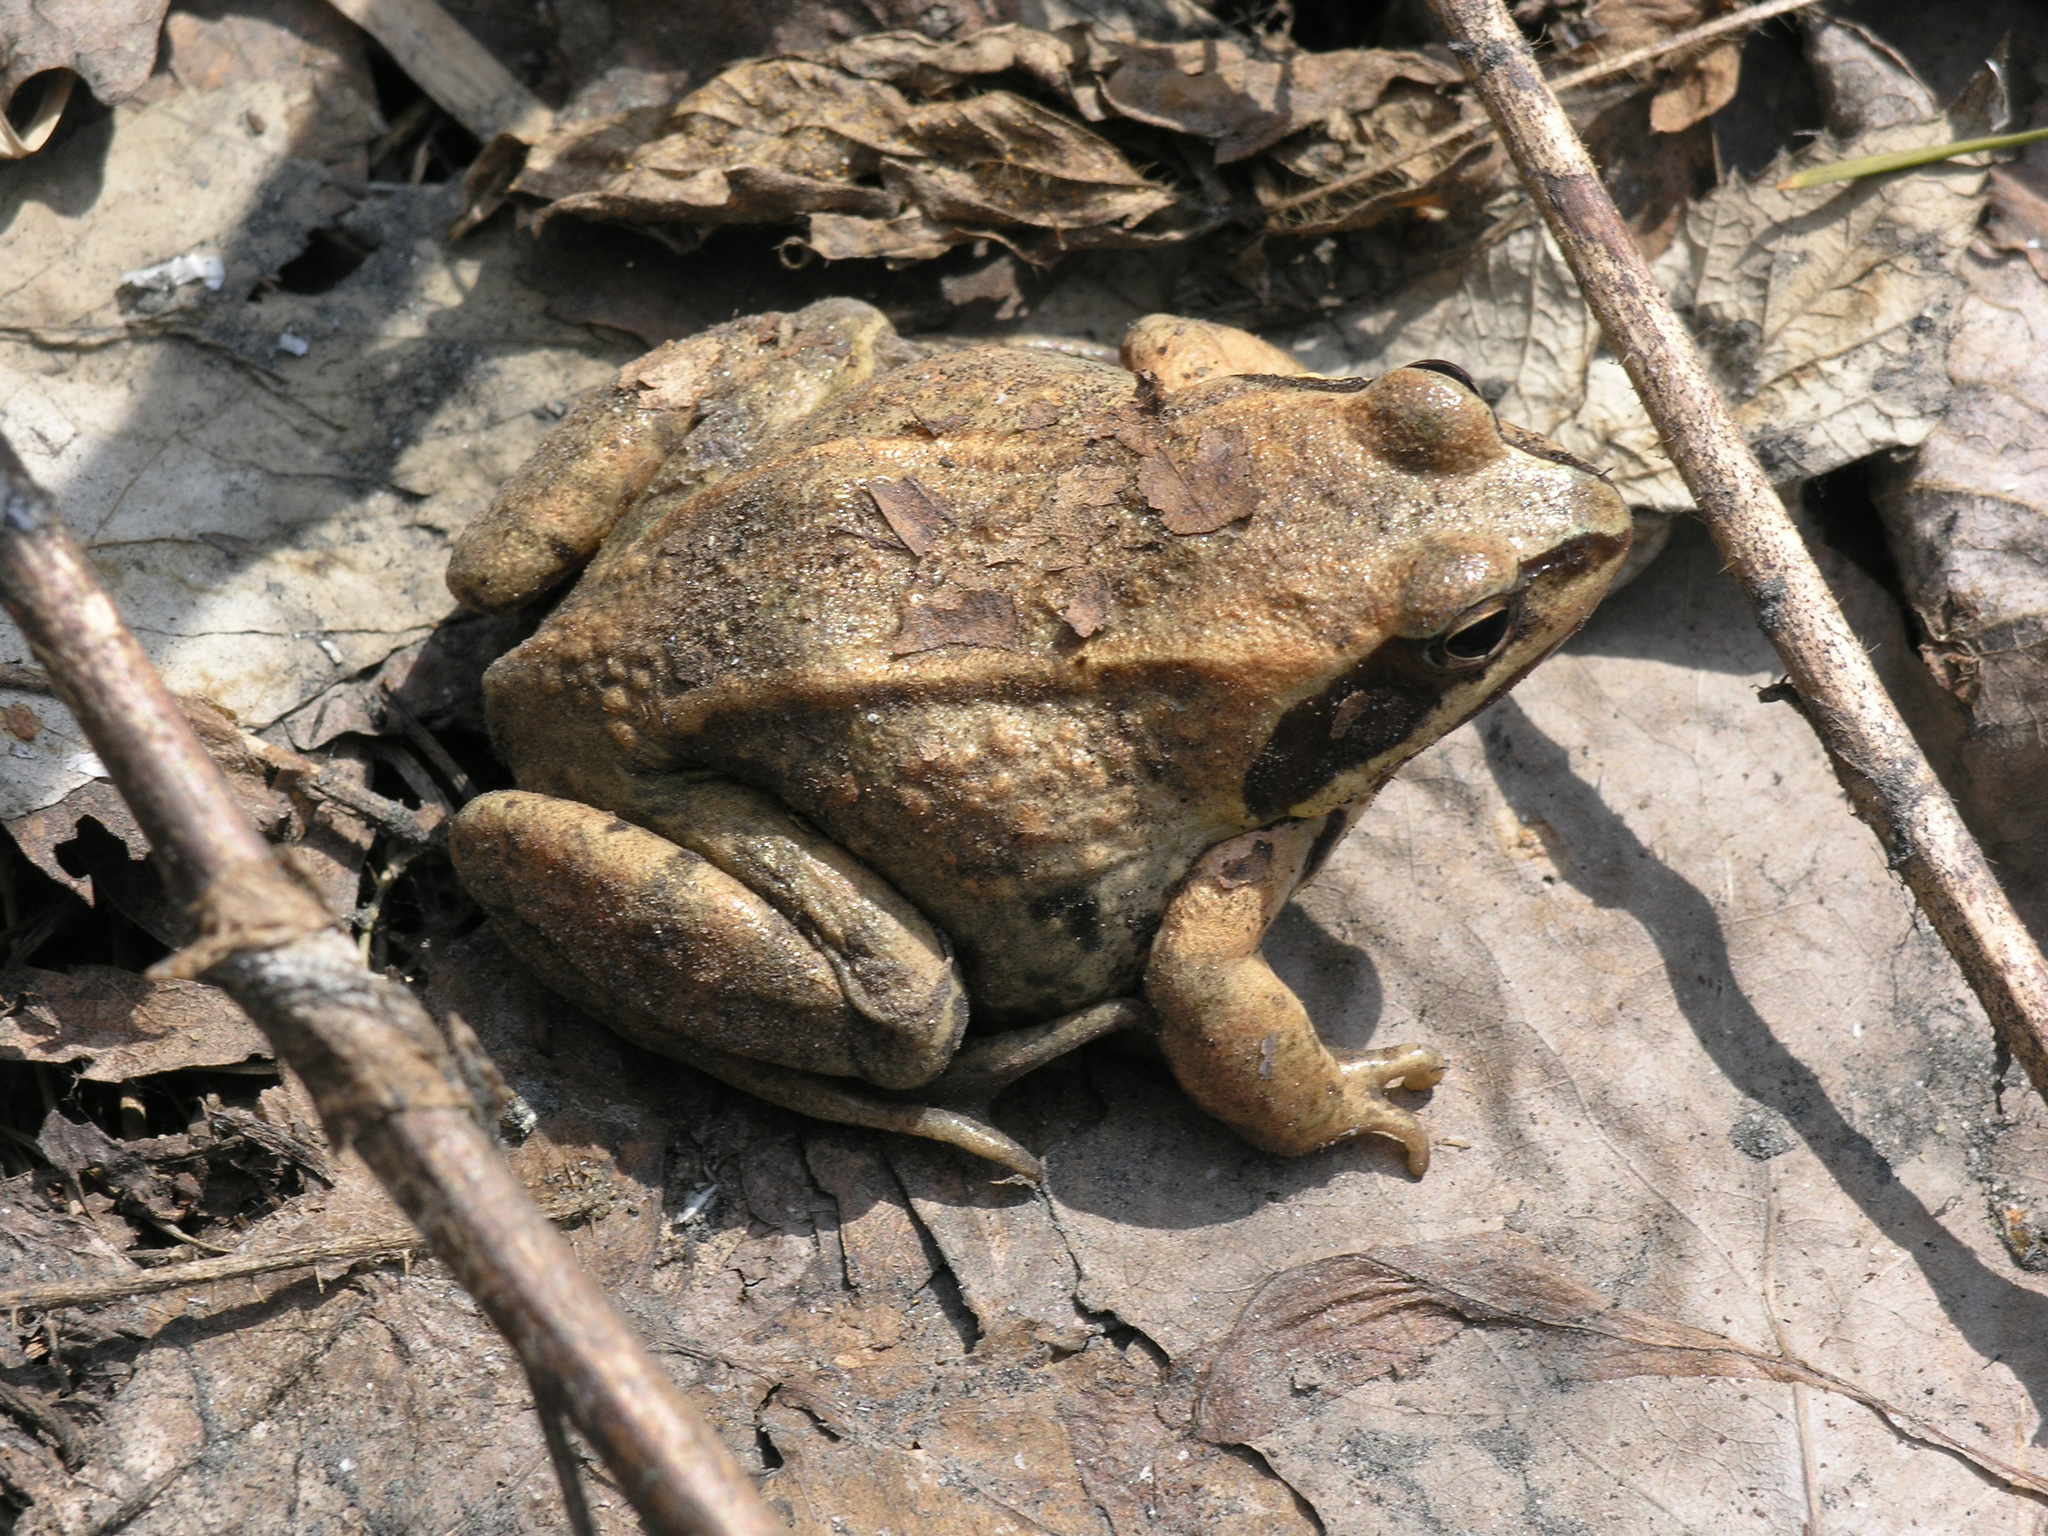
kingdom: Animalia
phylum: Chordata
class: Amphibia
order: Anura
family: Ranidae
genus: Rana
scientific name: Rana arvalis
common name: Moor frog
